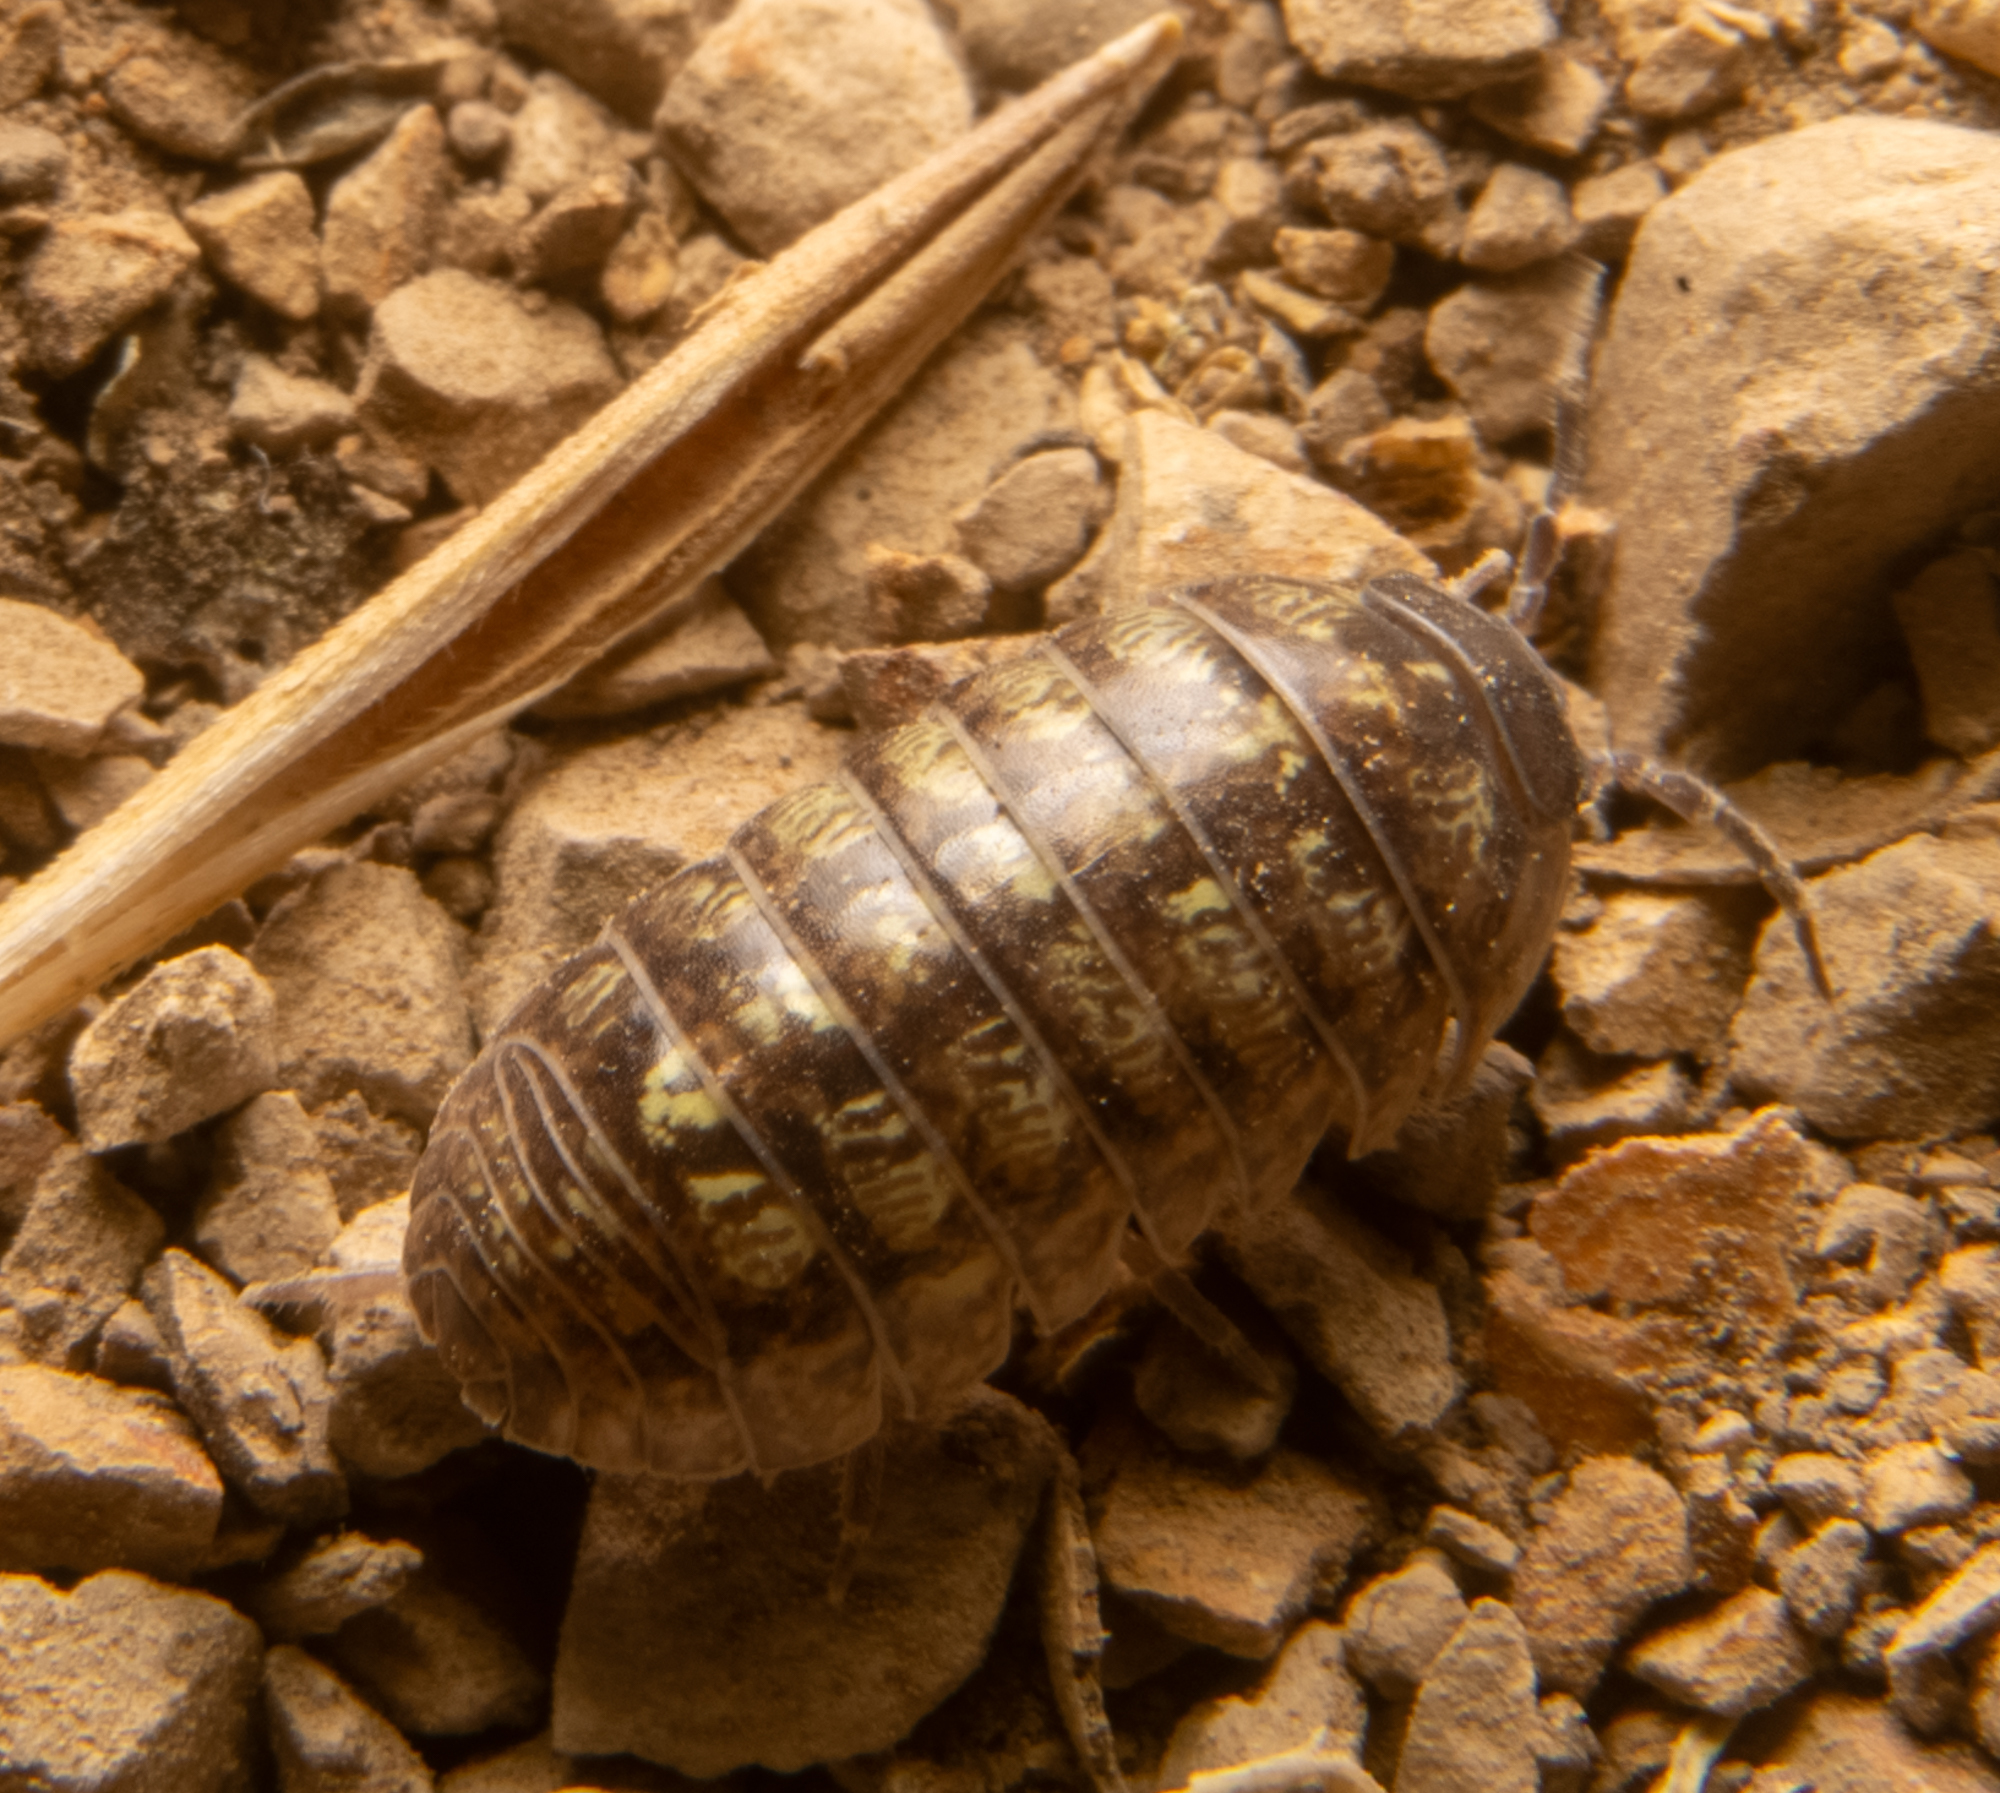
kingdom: Animalia
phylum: Arthropoda
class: Malacostraca
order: Isopoda
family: Armadillidiidae
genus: Armadillidium
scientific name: Armadillidium vulgare
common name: Common pill woodlouse
